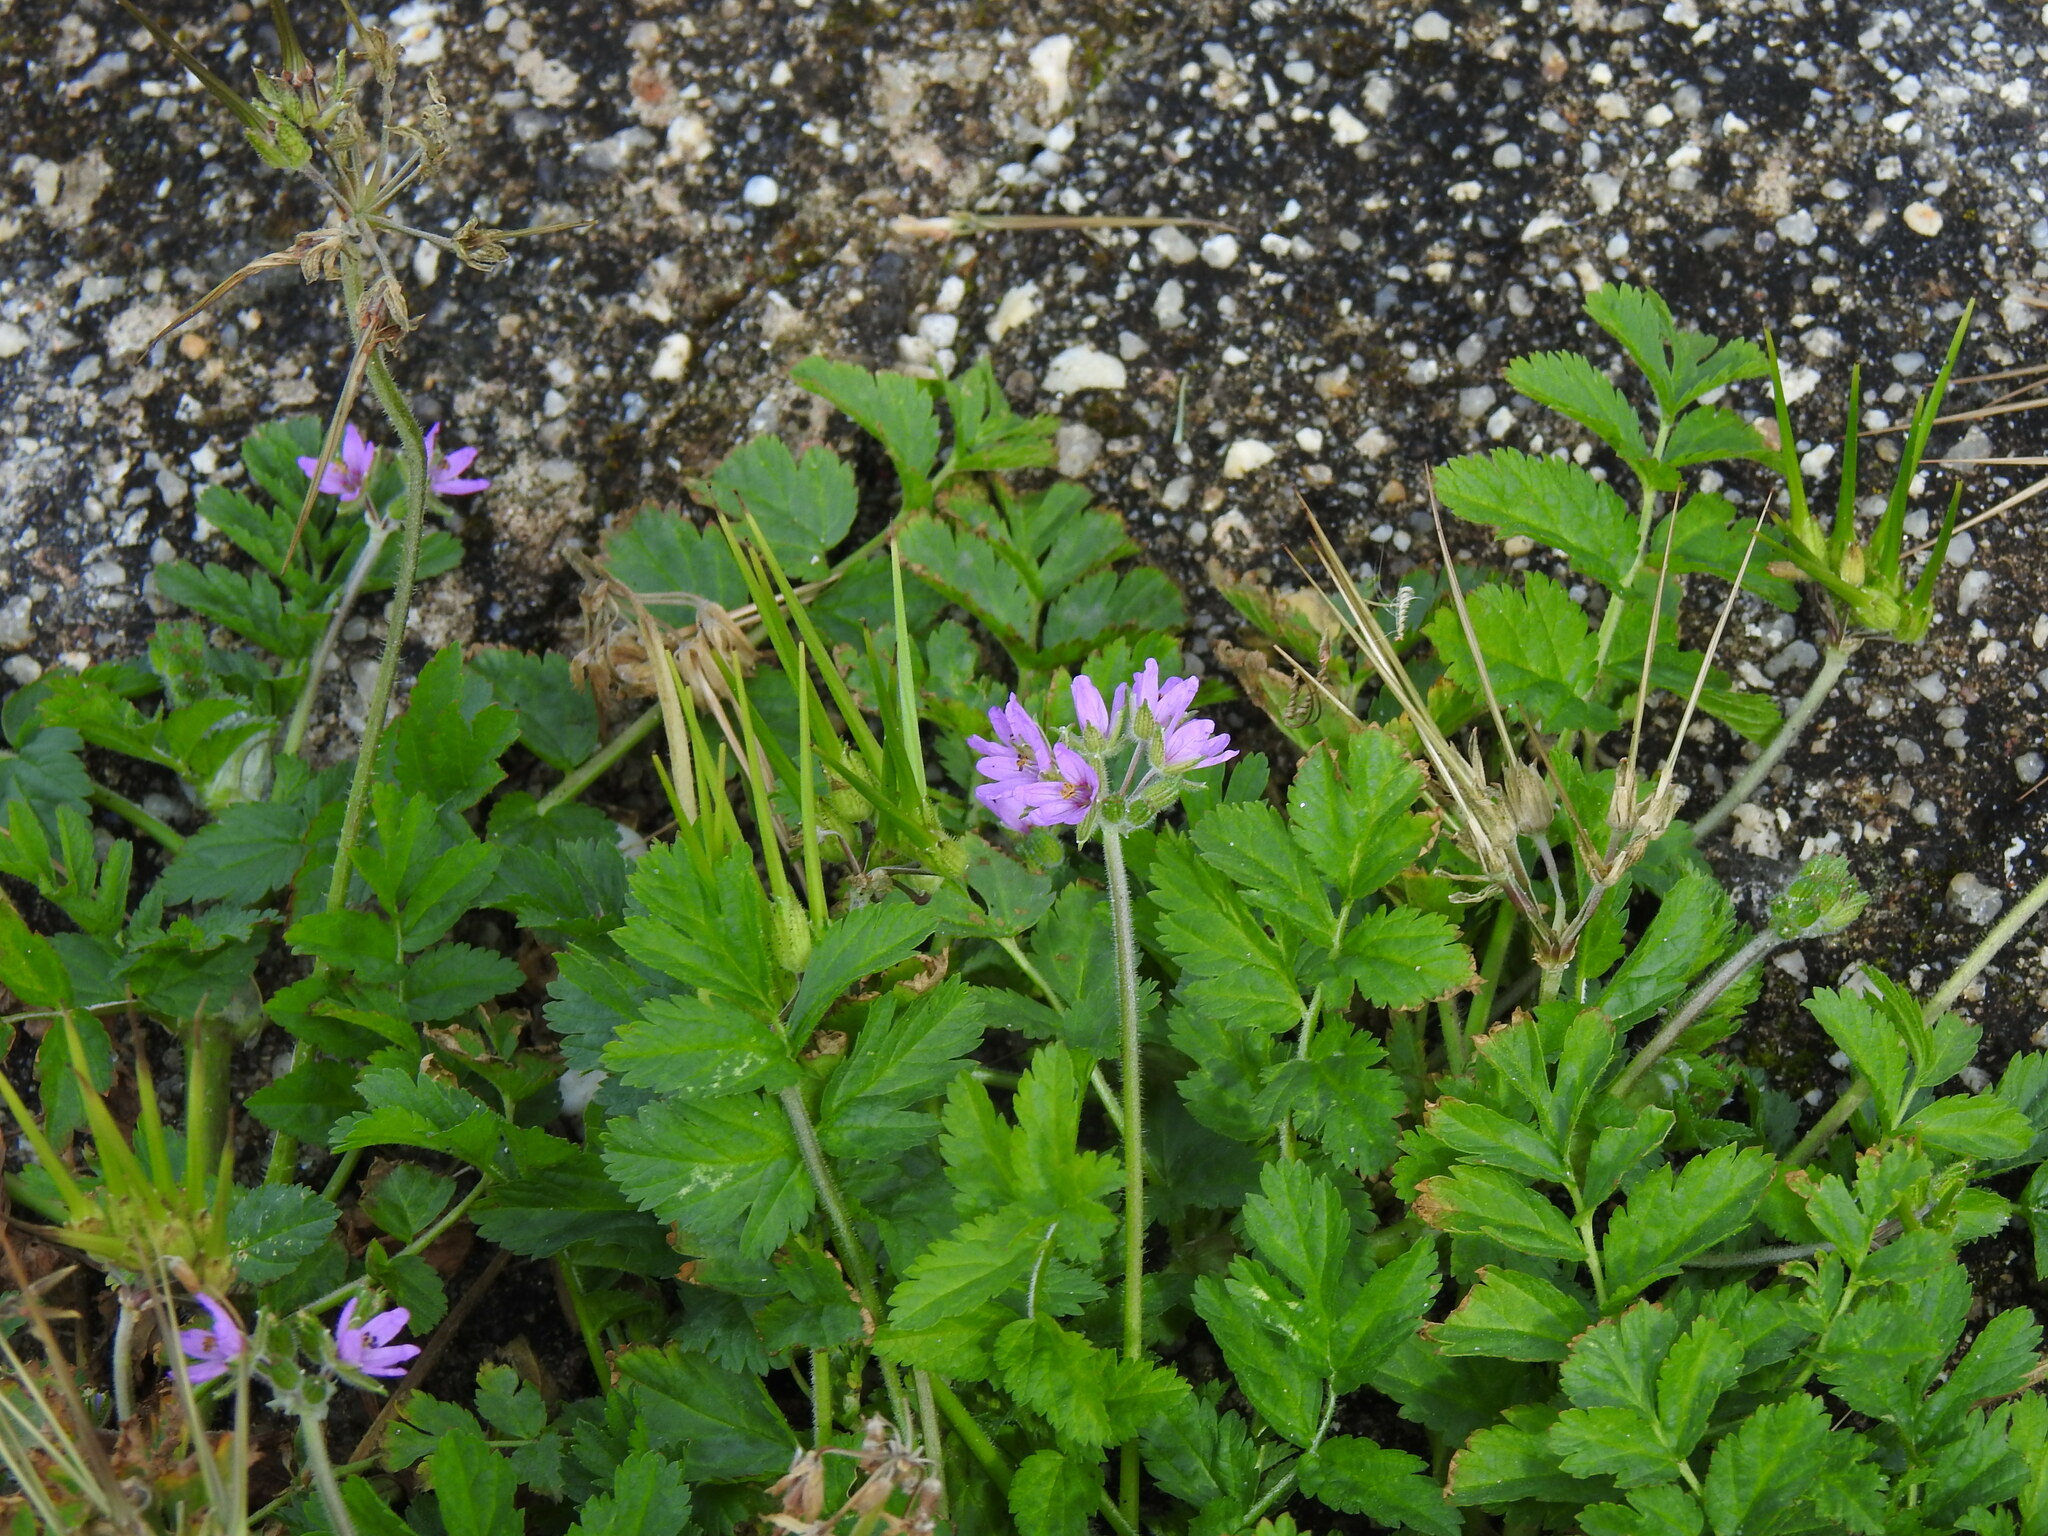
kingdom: Plantae
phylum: Tracheophyta
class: Magnoliopsida
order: Geraniales
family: Geraniaceae
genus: Erodium
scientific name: Erodium moschatum
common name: Musk stork's-bill
